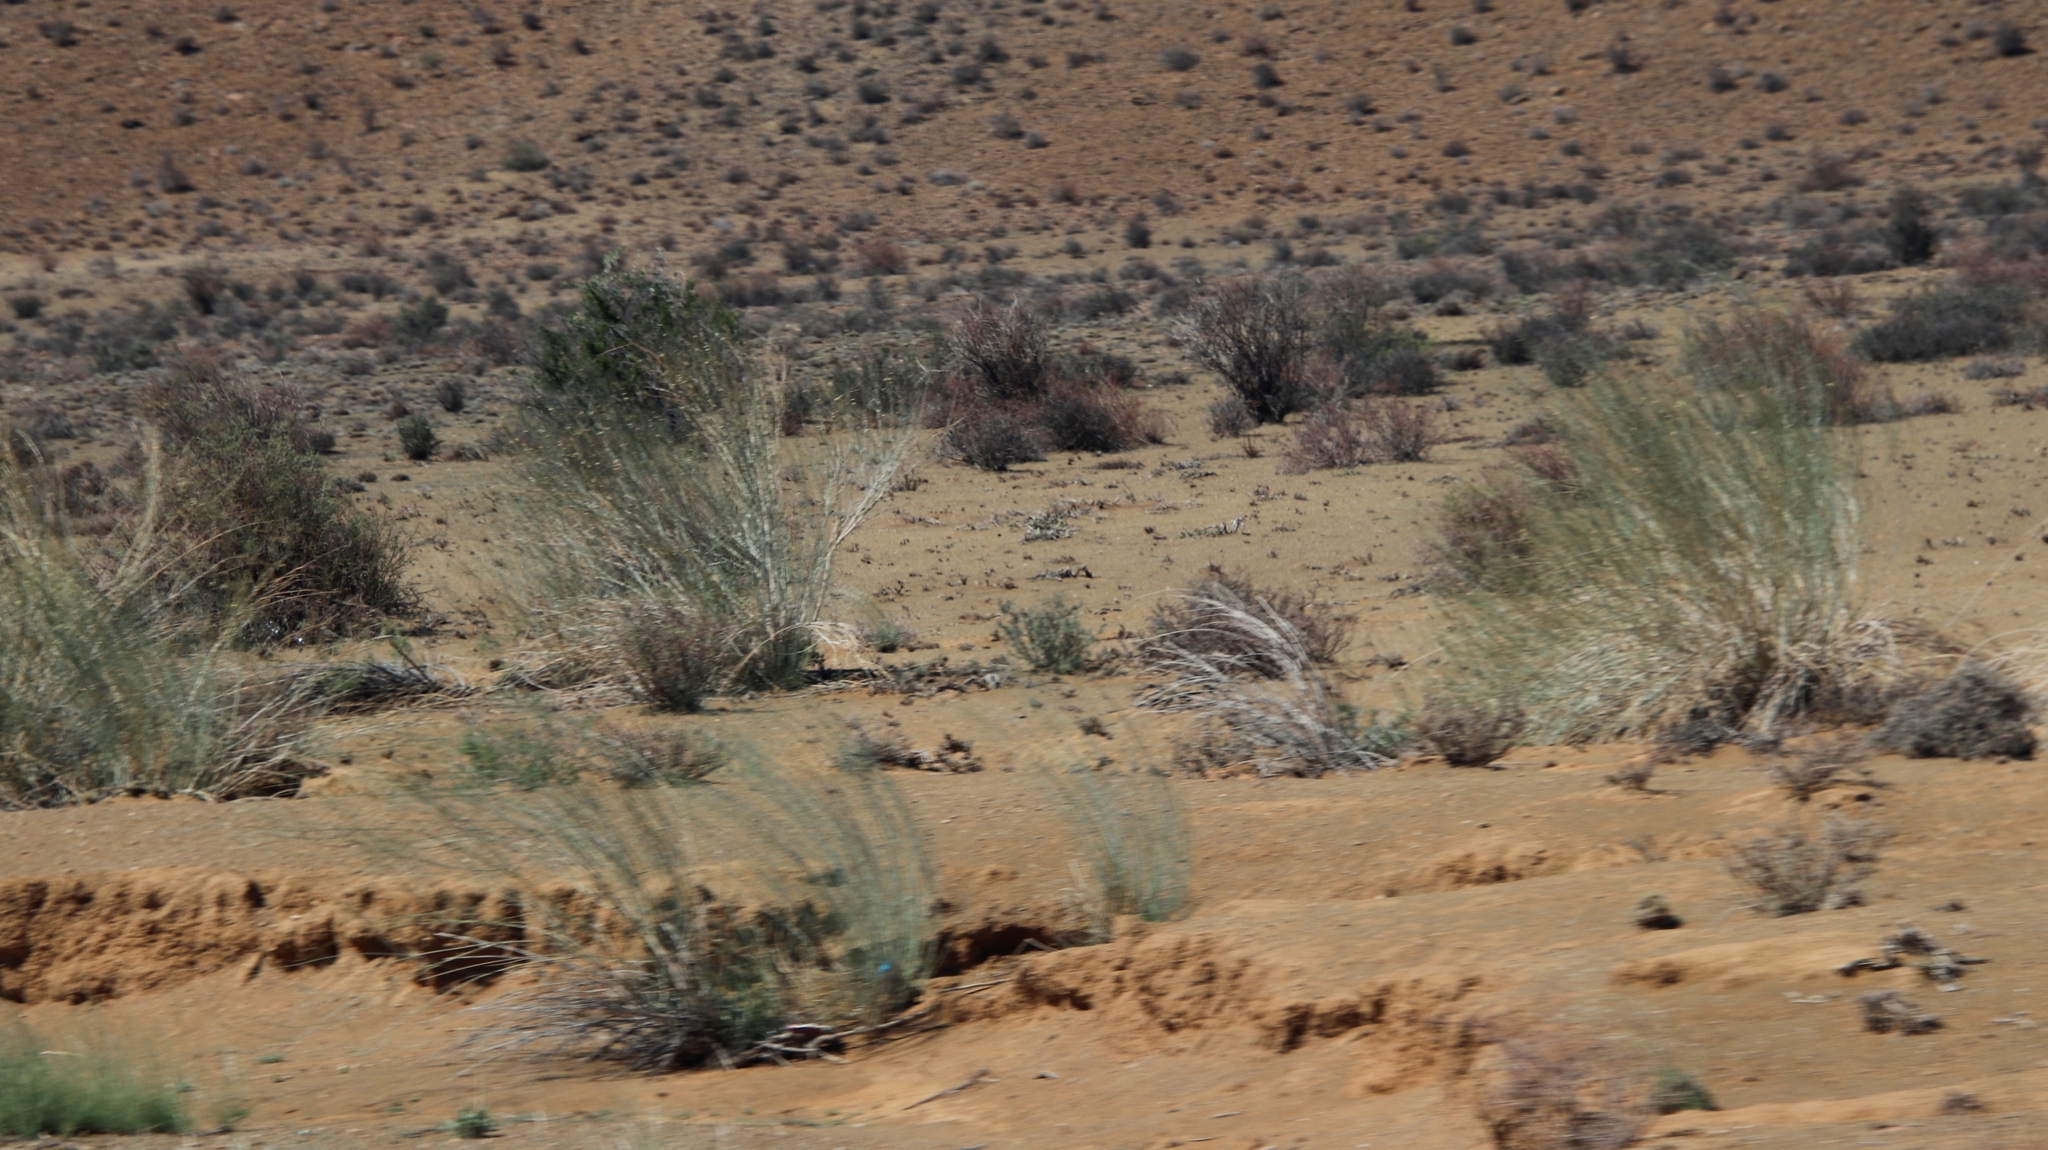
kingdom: Plantae
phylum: Tracheophyta
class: Magnoliopsida
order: Gentianales
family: Apocynaceae
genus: Gomphocarpus
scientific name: Gomphocarpus filiformis
